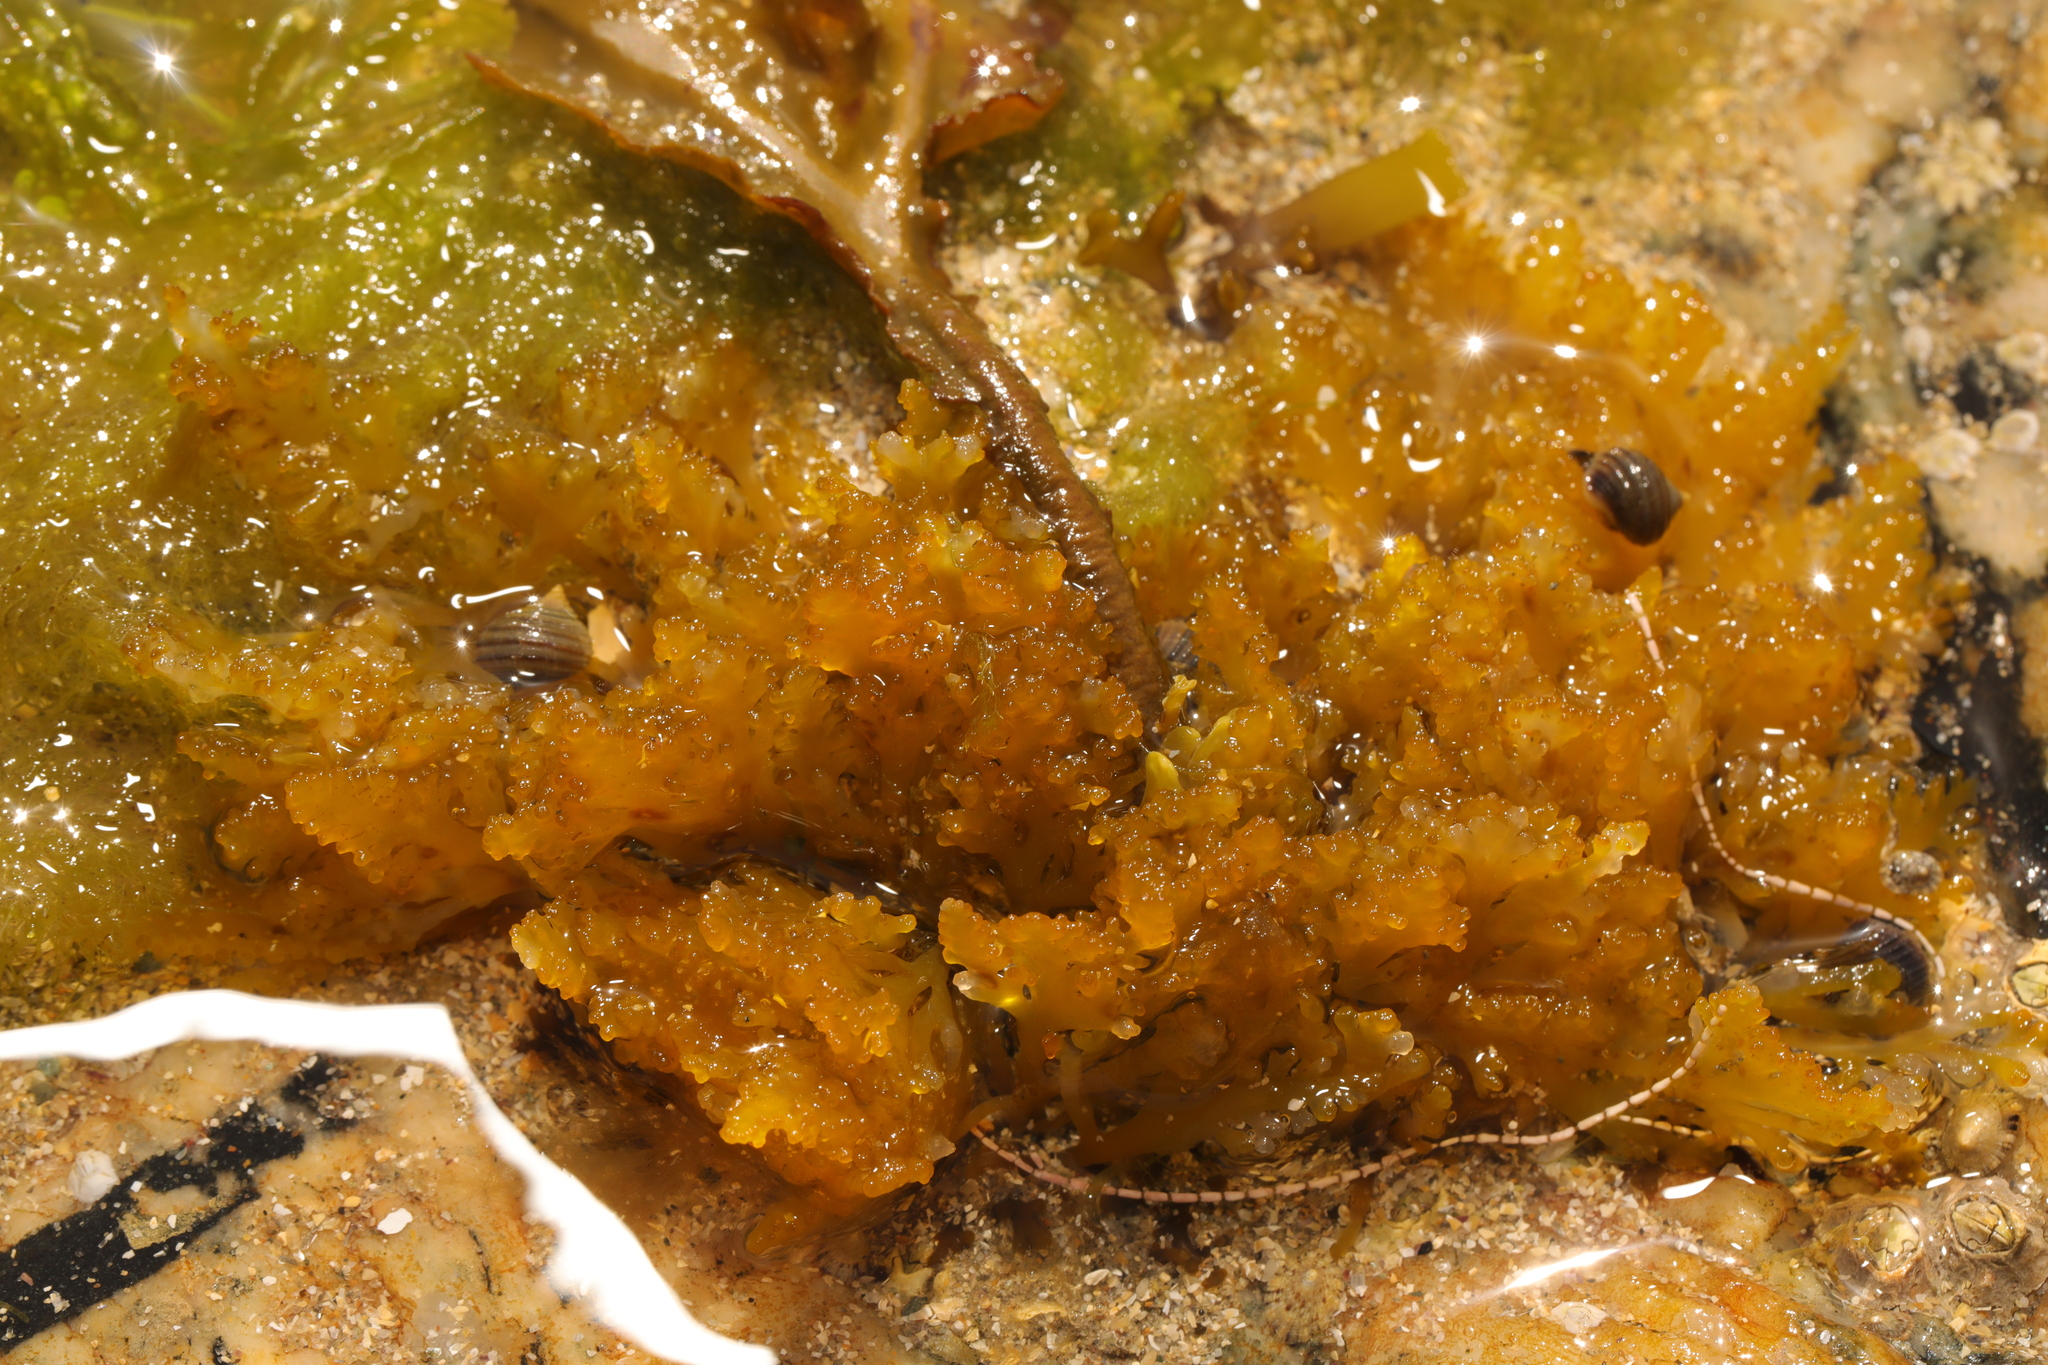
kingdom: Plantae
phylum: Rhodophyta
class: Florideophyceae
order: Ceramiales
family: Rhodomelaceae
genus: Laurencia
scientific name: Laurencia Osmundea pinnatifida
